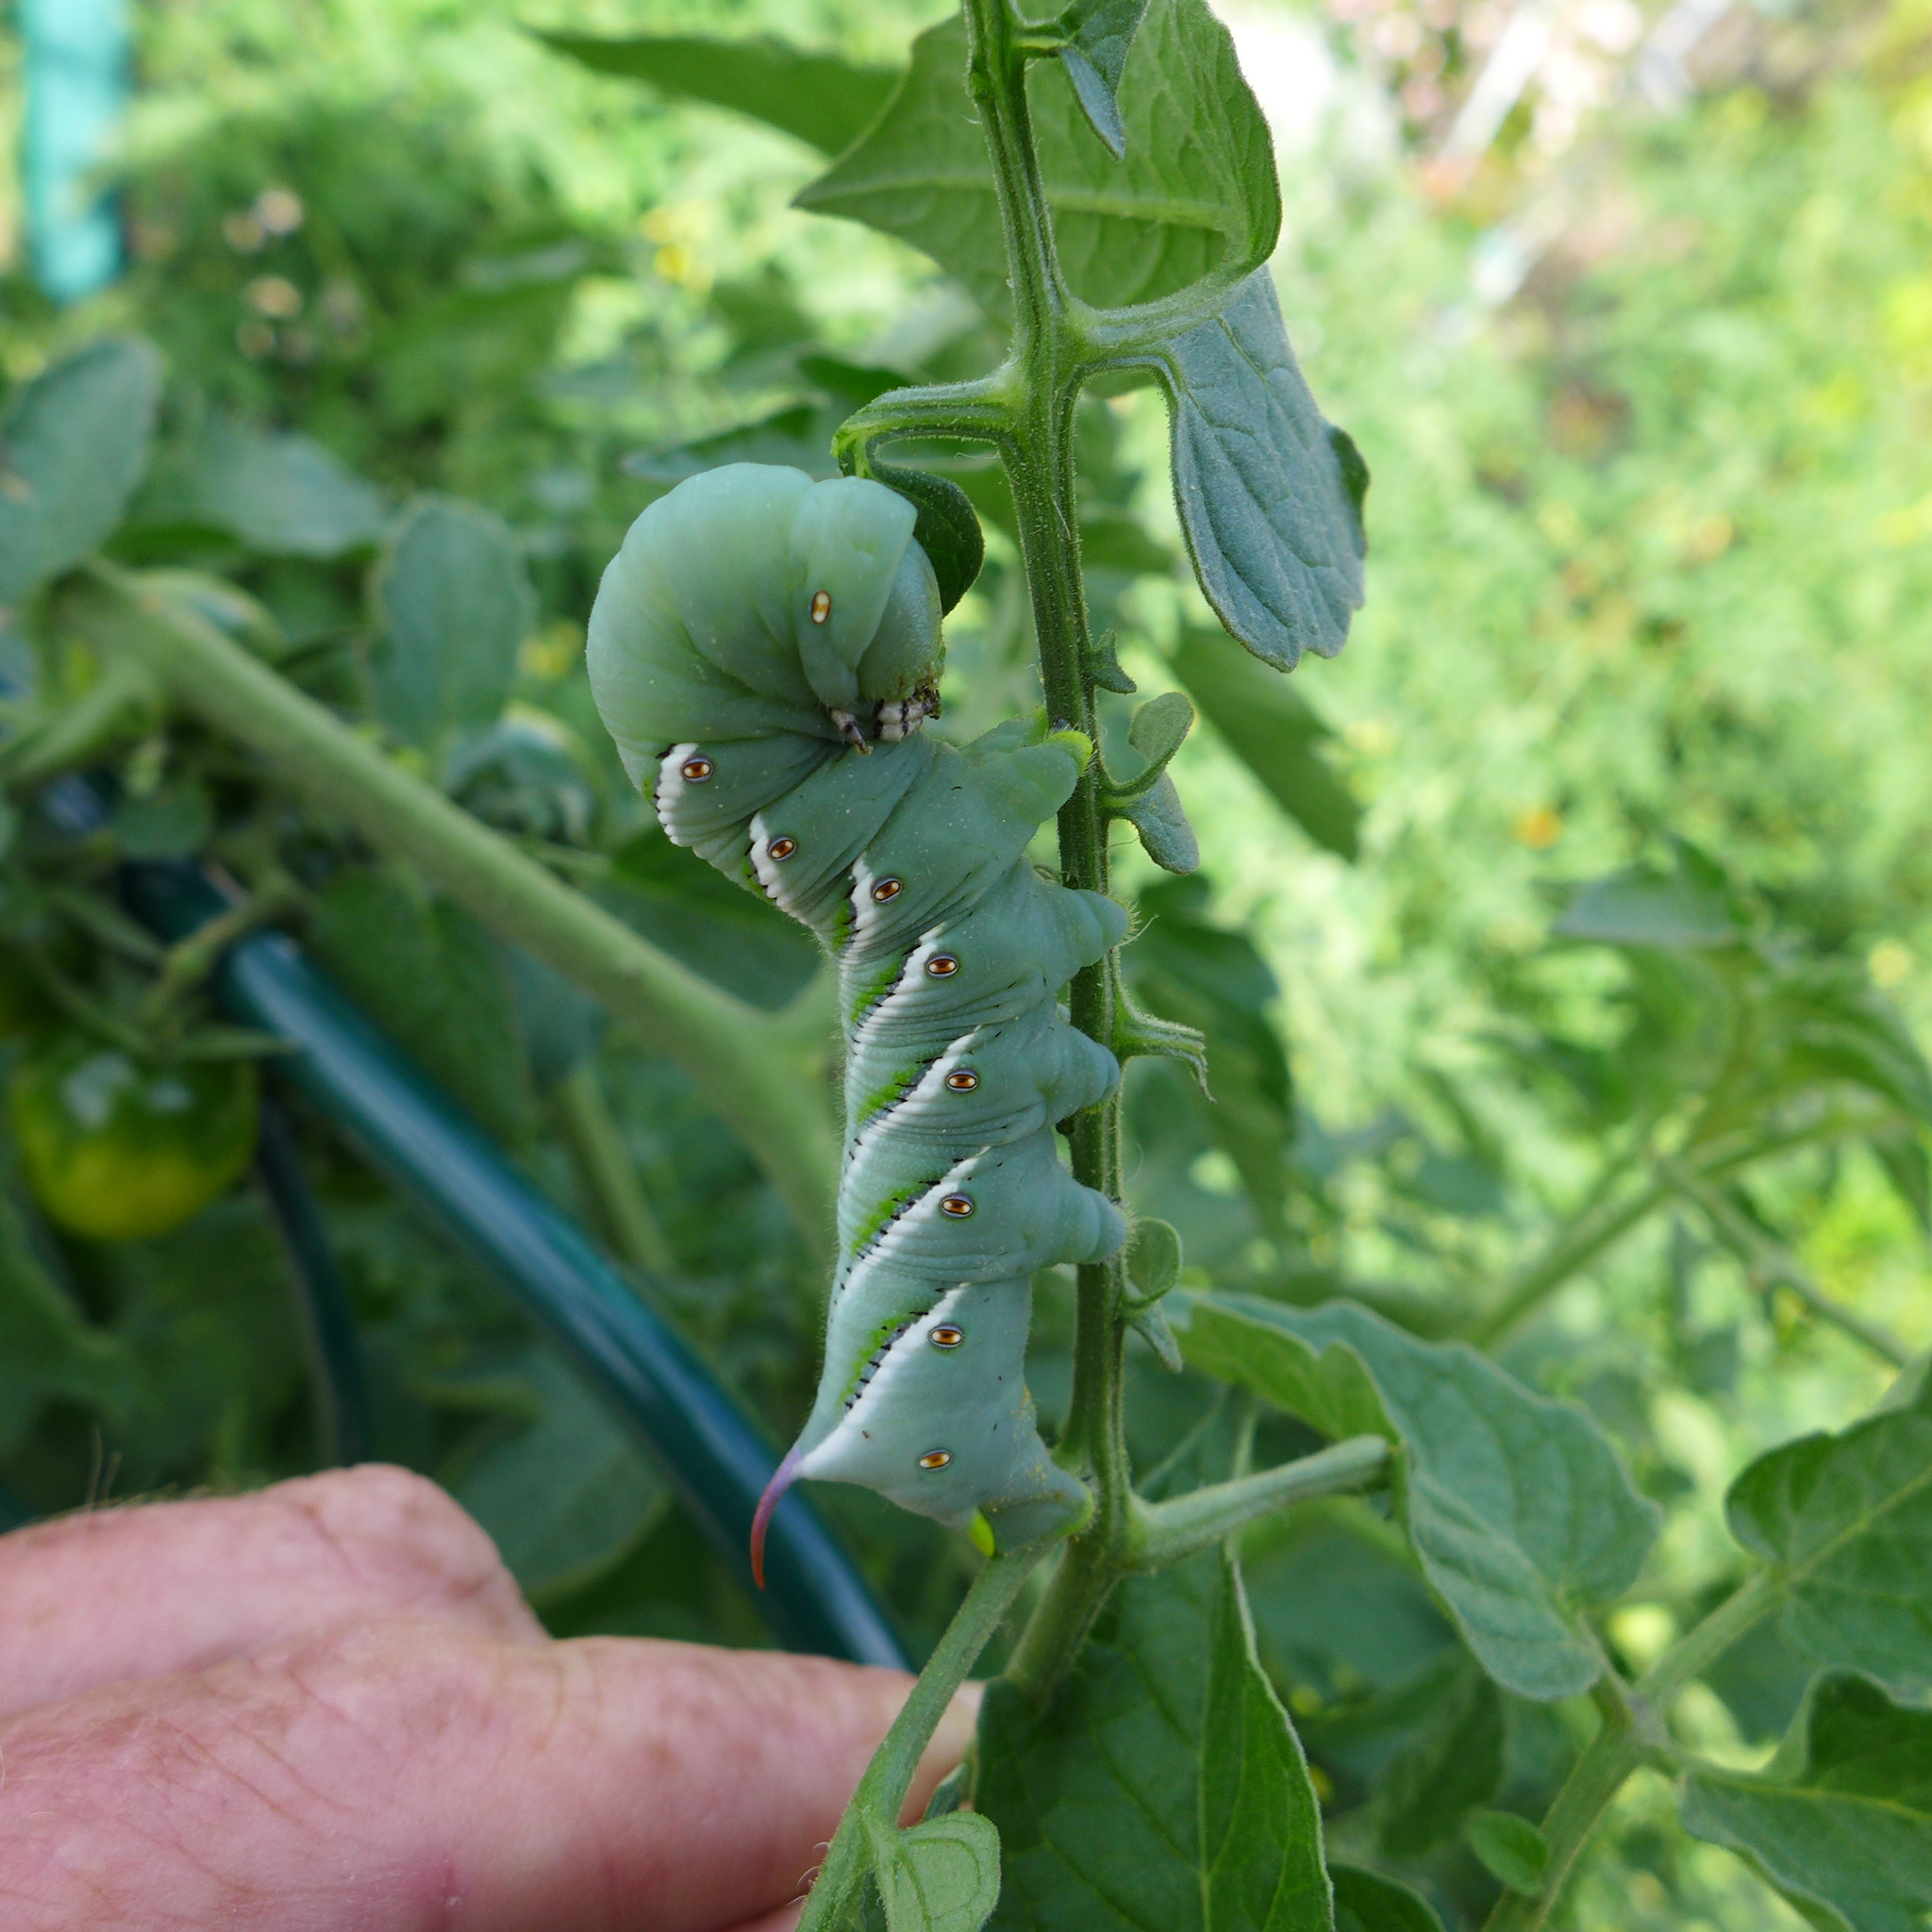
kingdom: Animalia
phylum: Arthropoda
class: Insecta
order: Lepidoptera
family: Sphingidae
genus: Manduca
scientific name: Manduca sexta
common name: Carolina sphinx
